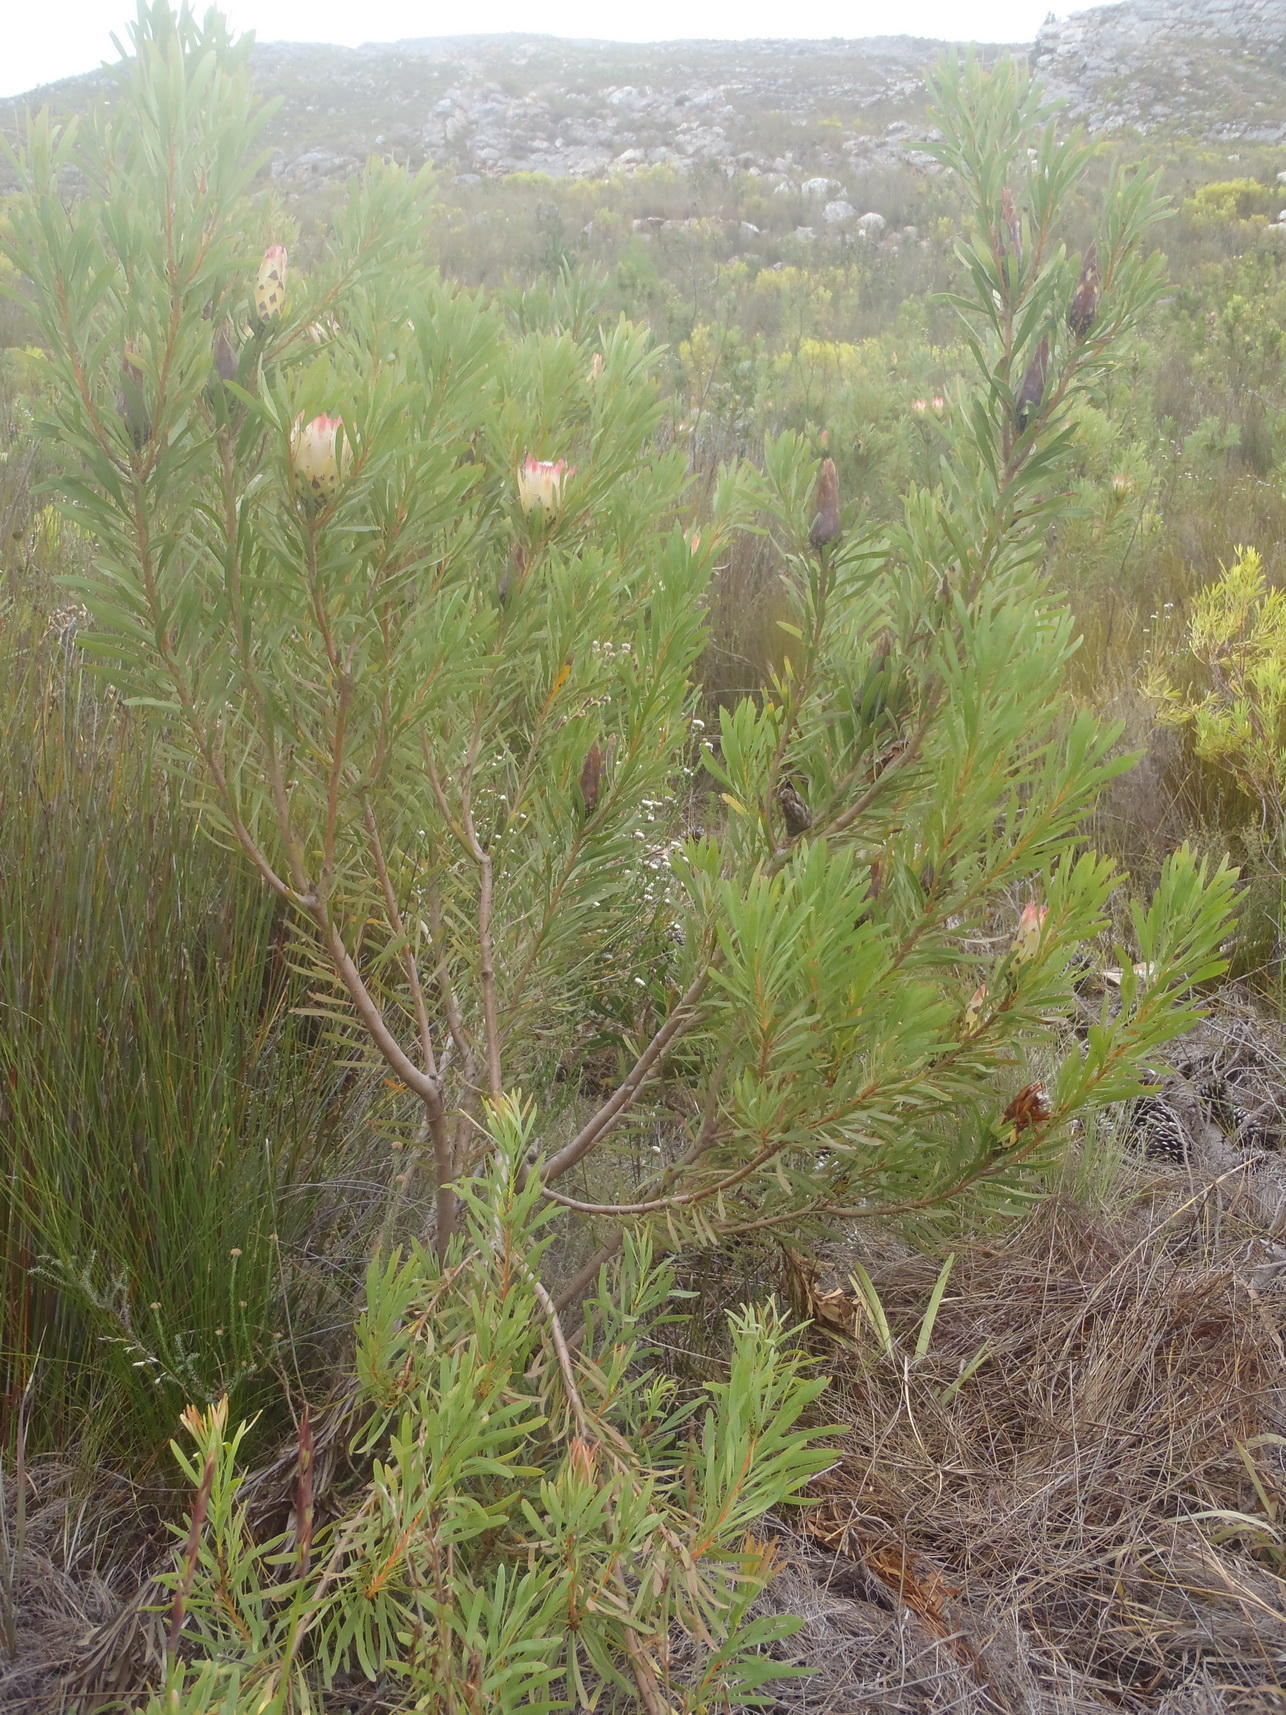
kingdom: Plantae
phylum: Tracheophyta
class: Magnoliopsida
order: Proteales
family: Proteaceae
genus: Protea
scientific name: Protea repens
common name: Sugarbush
